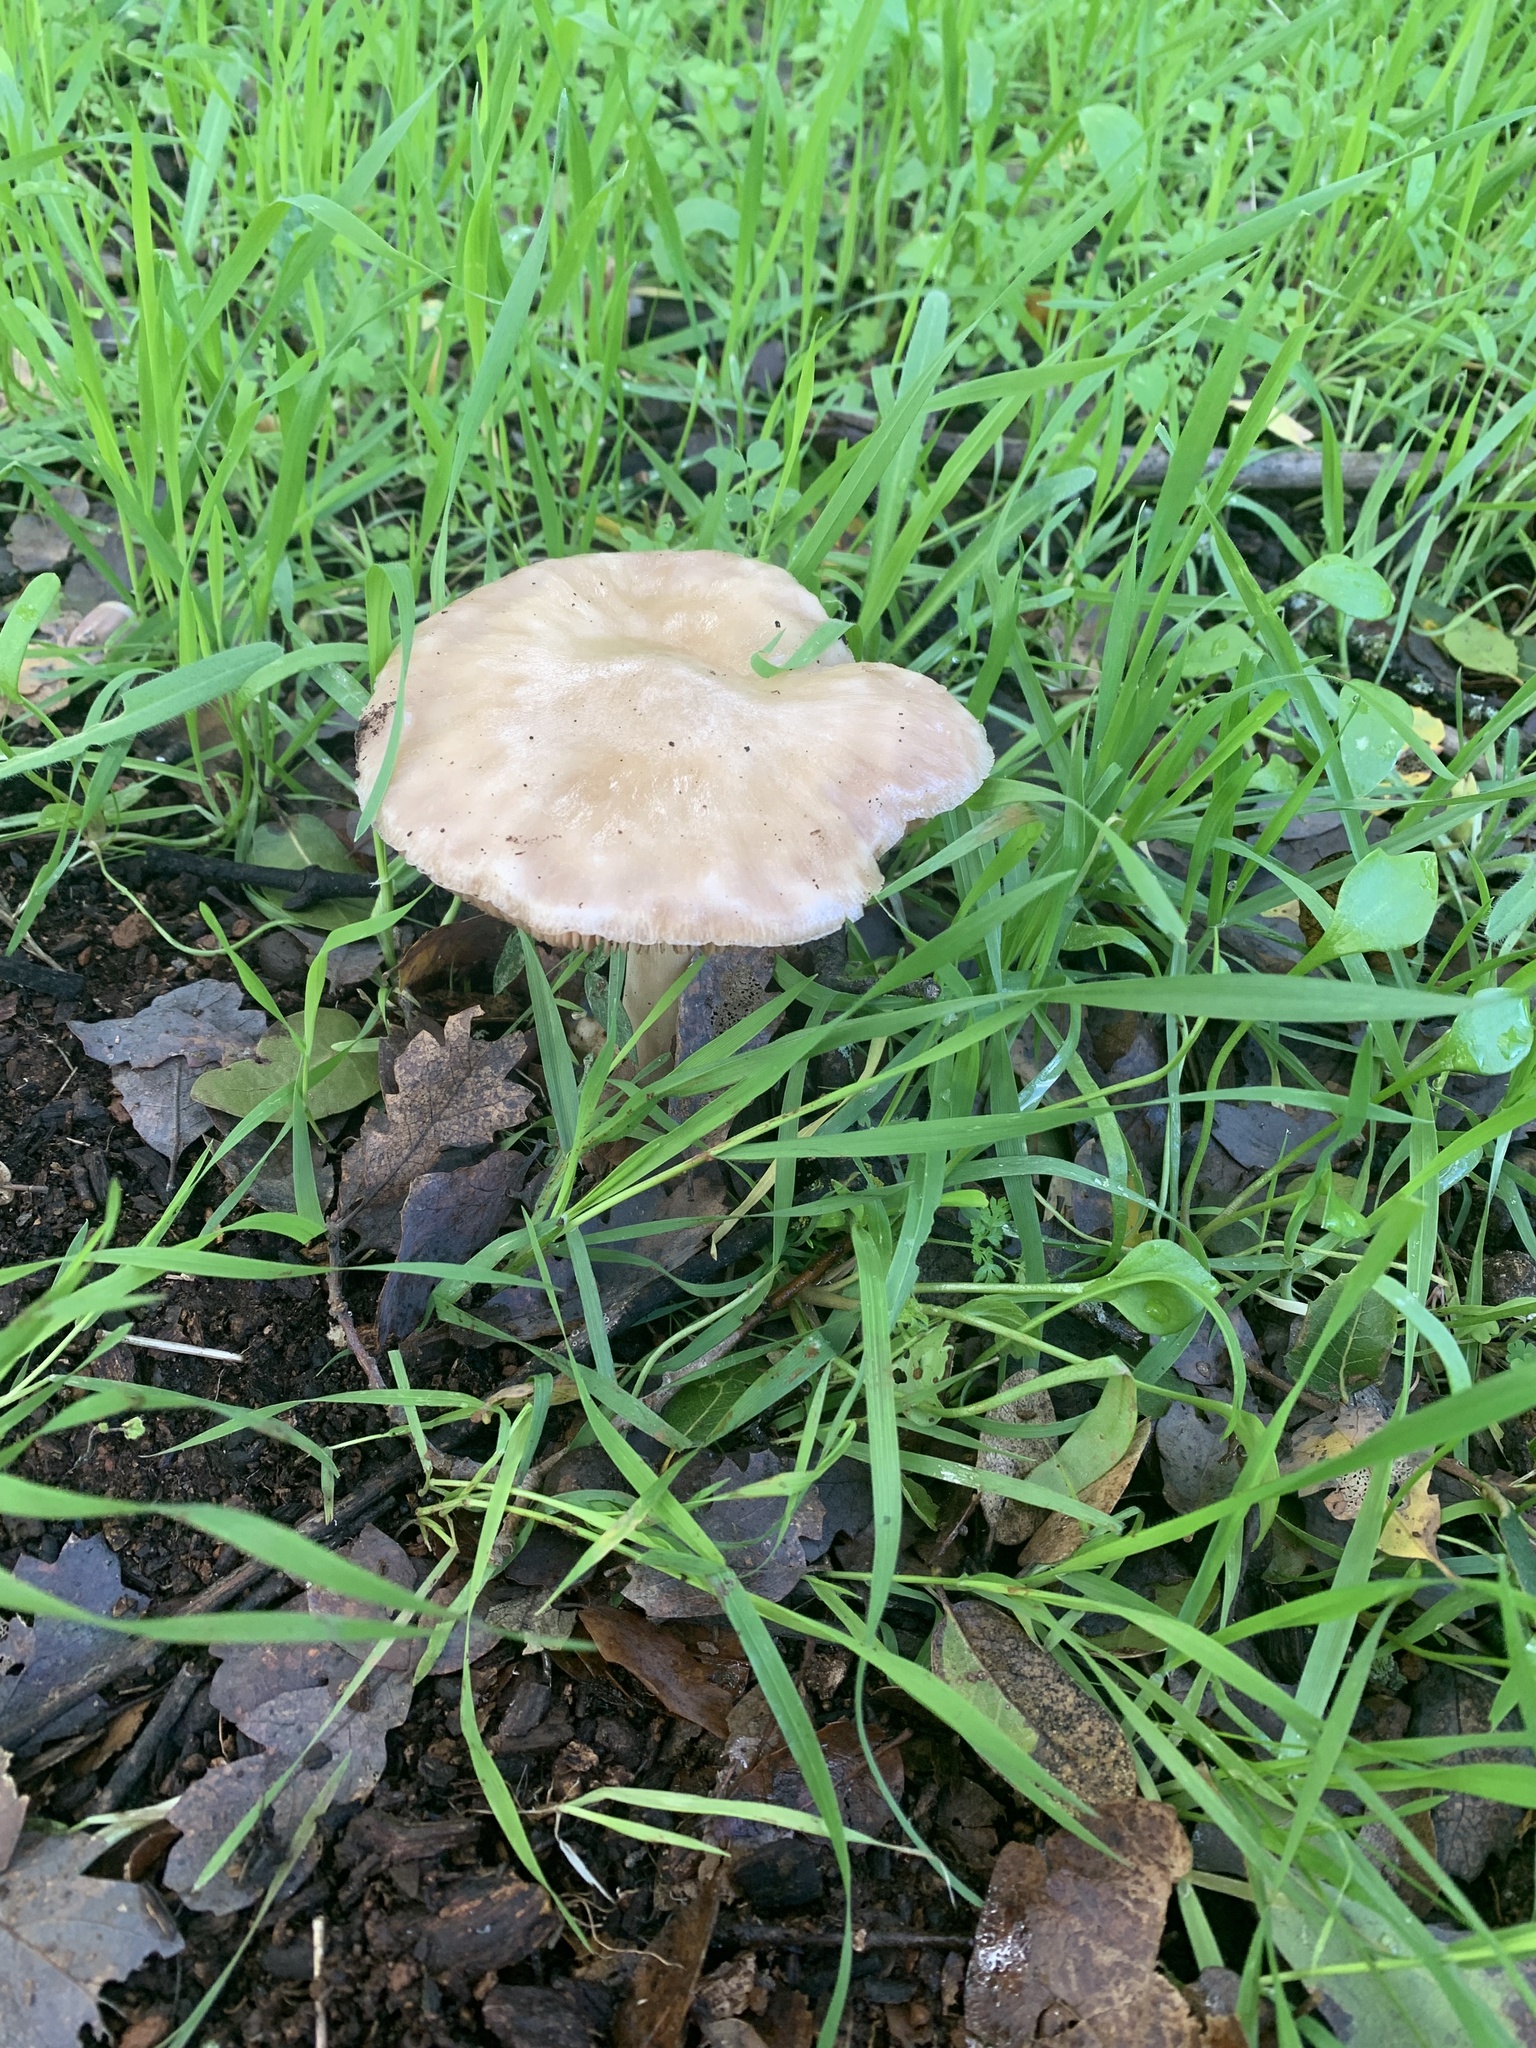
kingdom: Fungi
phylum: Basidiomycota
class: Agaricomycetes
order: Agaricales
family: Pluteaceae
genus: Volvopluteus
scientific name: Volvopluteus gloiocephalus
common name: Stubble rosegill
